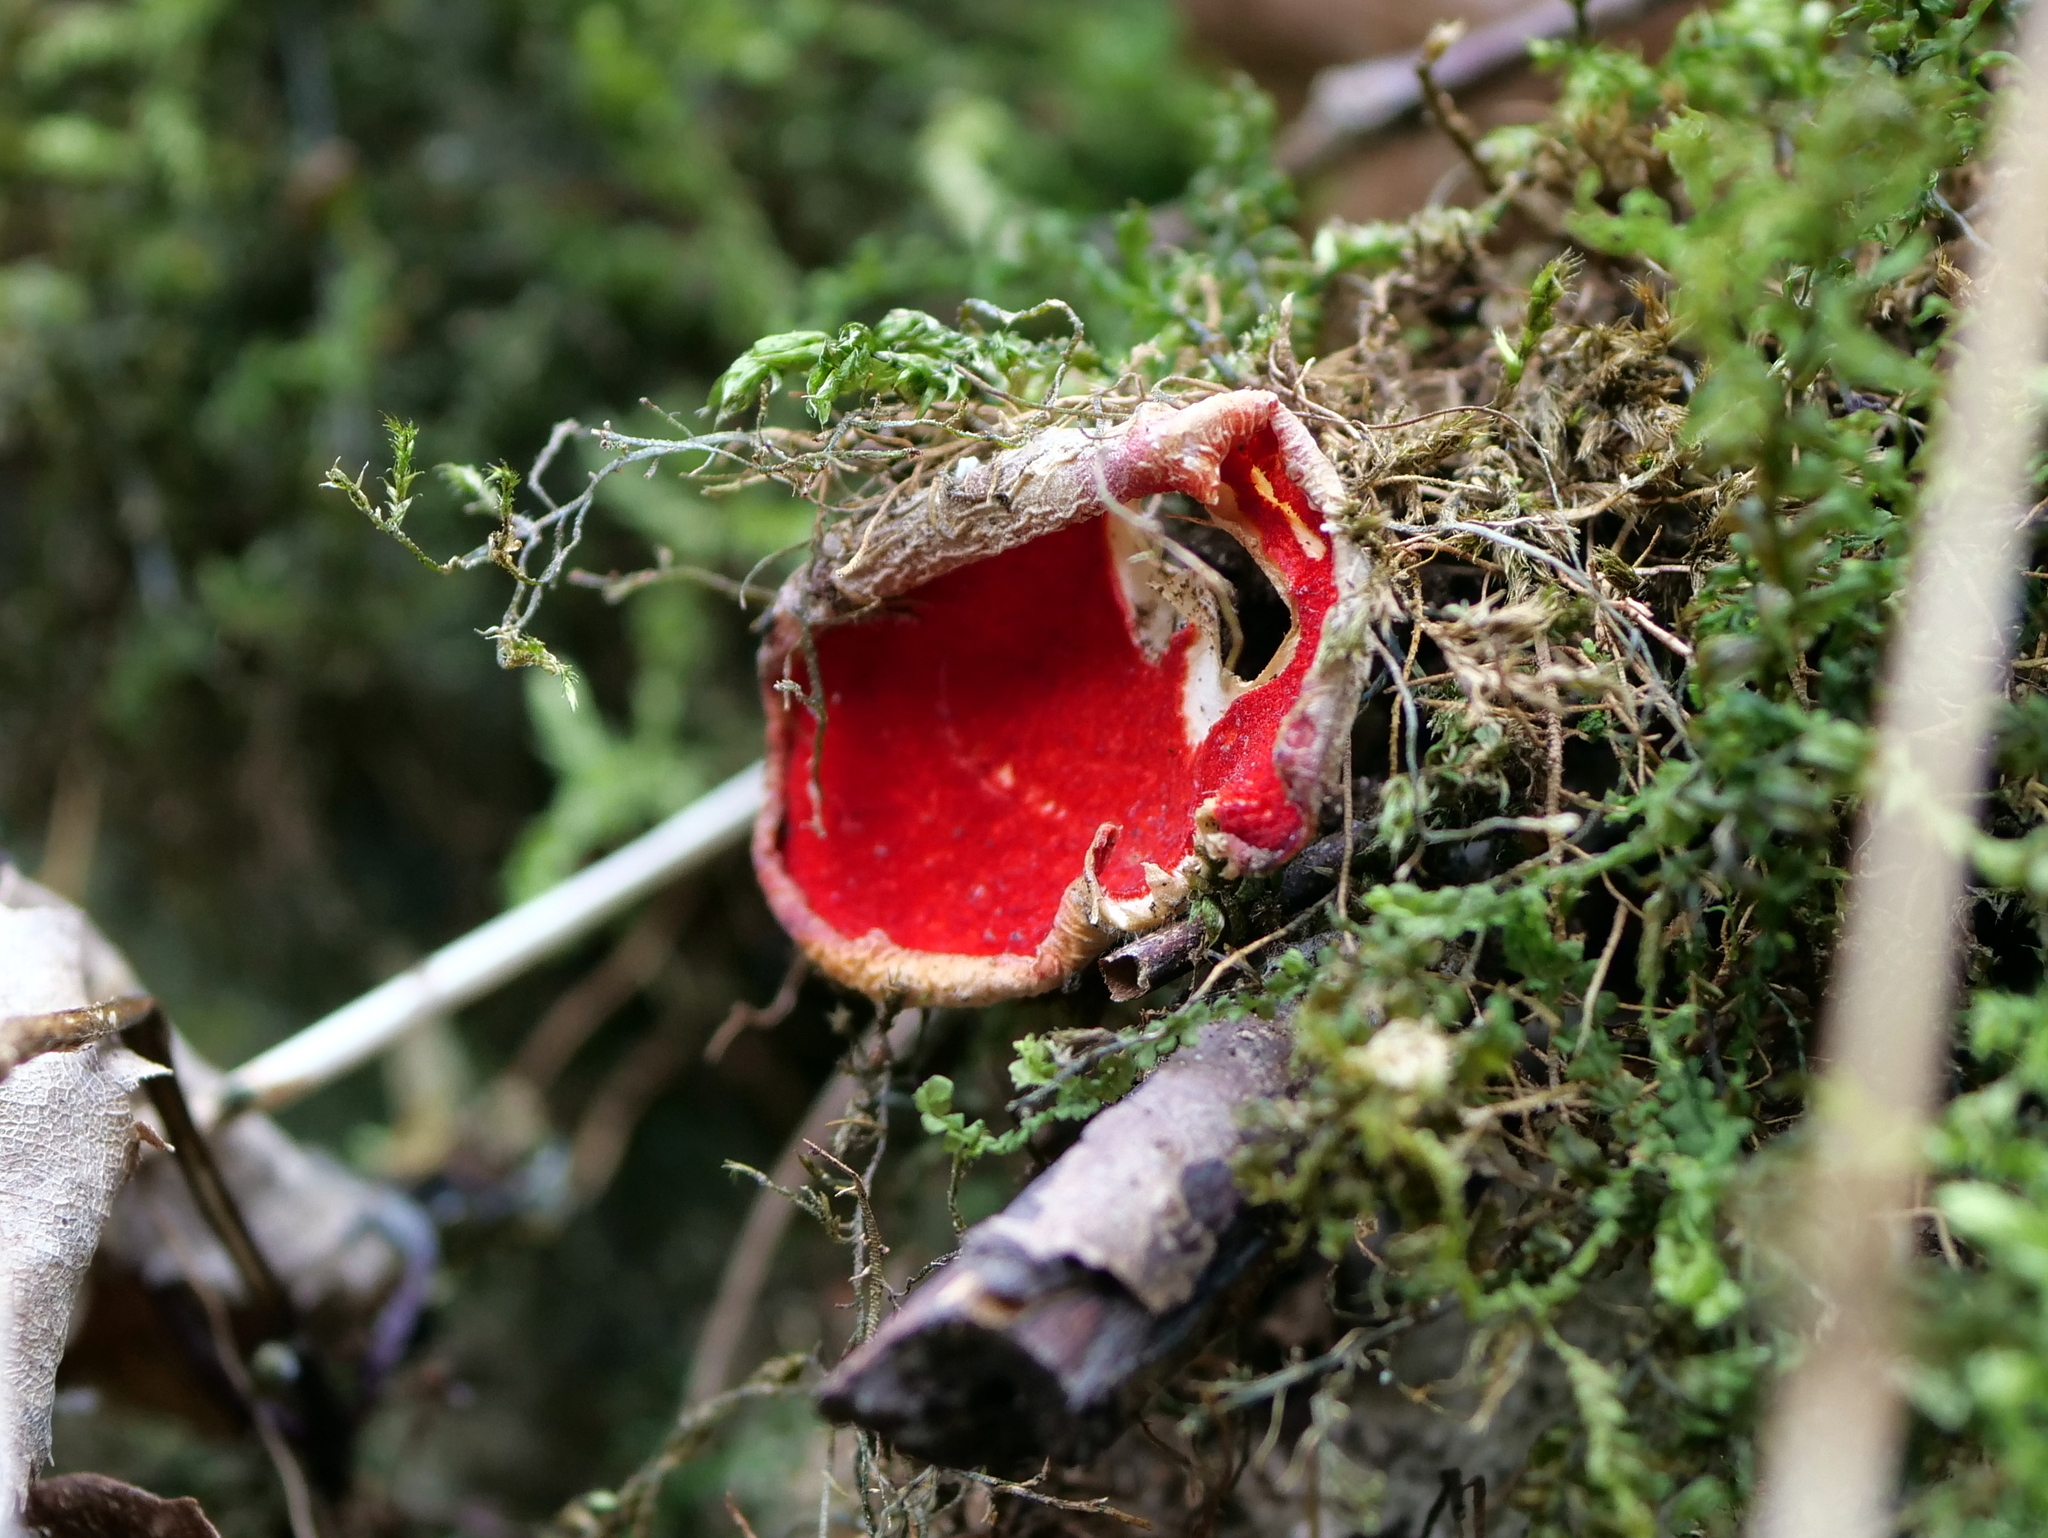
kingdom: Fungi
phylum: Ascomycota
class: Pezizomycetes
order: Pezizales
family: Sarcoscyphaceae
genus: Sarcoscypha
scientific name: Sarcoscypha
